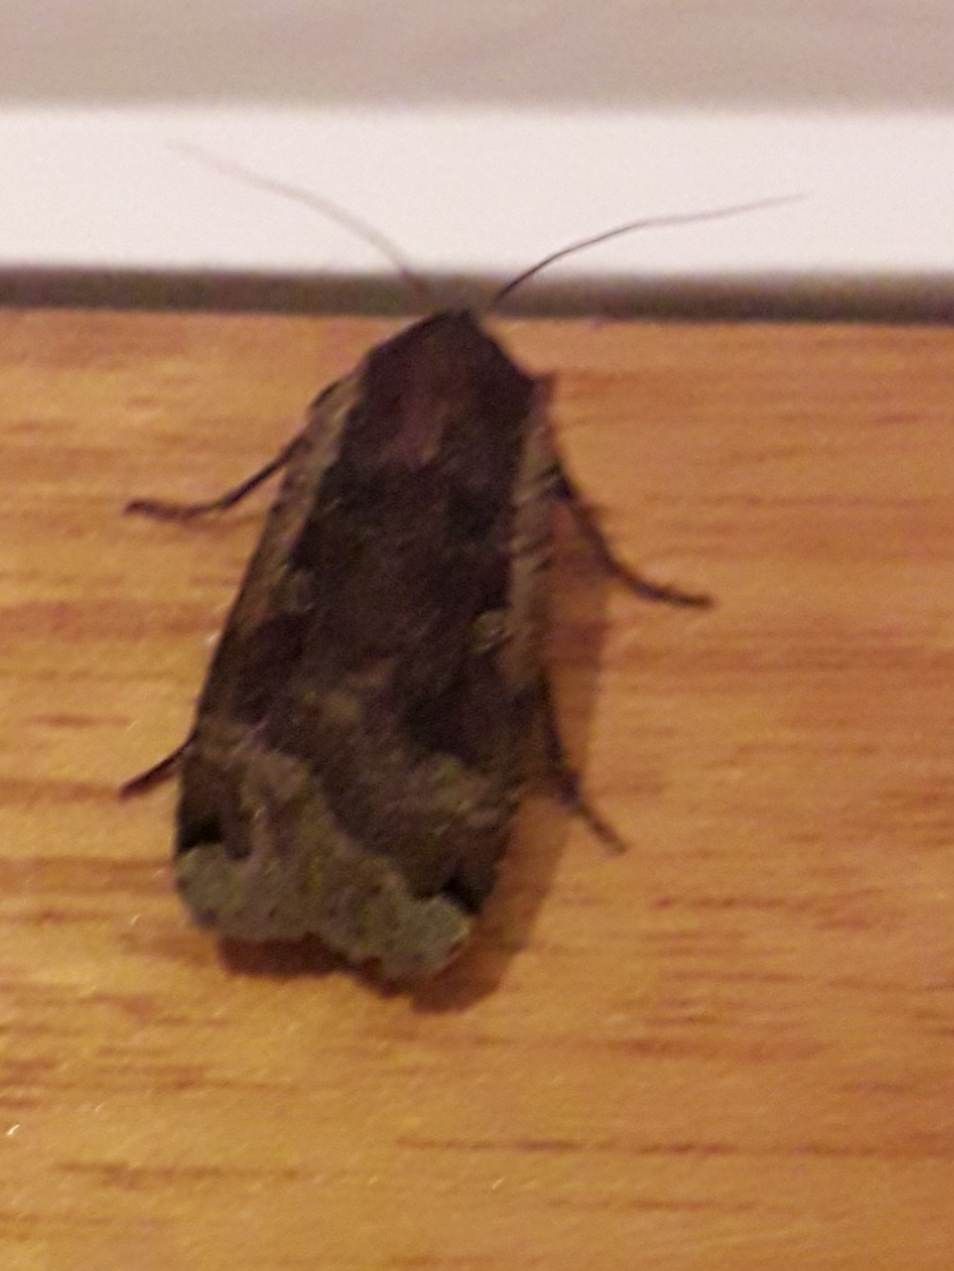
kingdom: Animalia
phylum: Arthropoda
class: Insecta
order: Lepidoptera
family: Noctuidae
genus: Noctua
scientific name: Noctua pronuba
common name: Large yellow underwing
